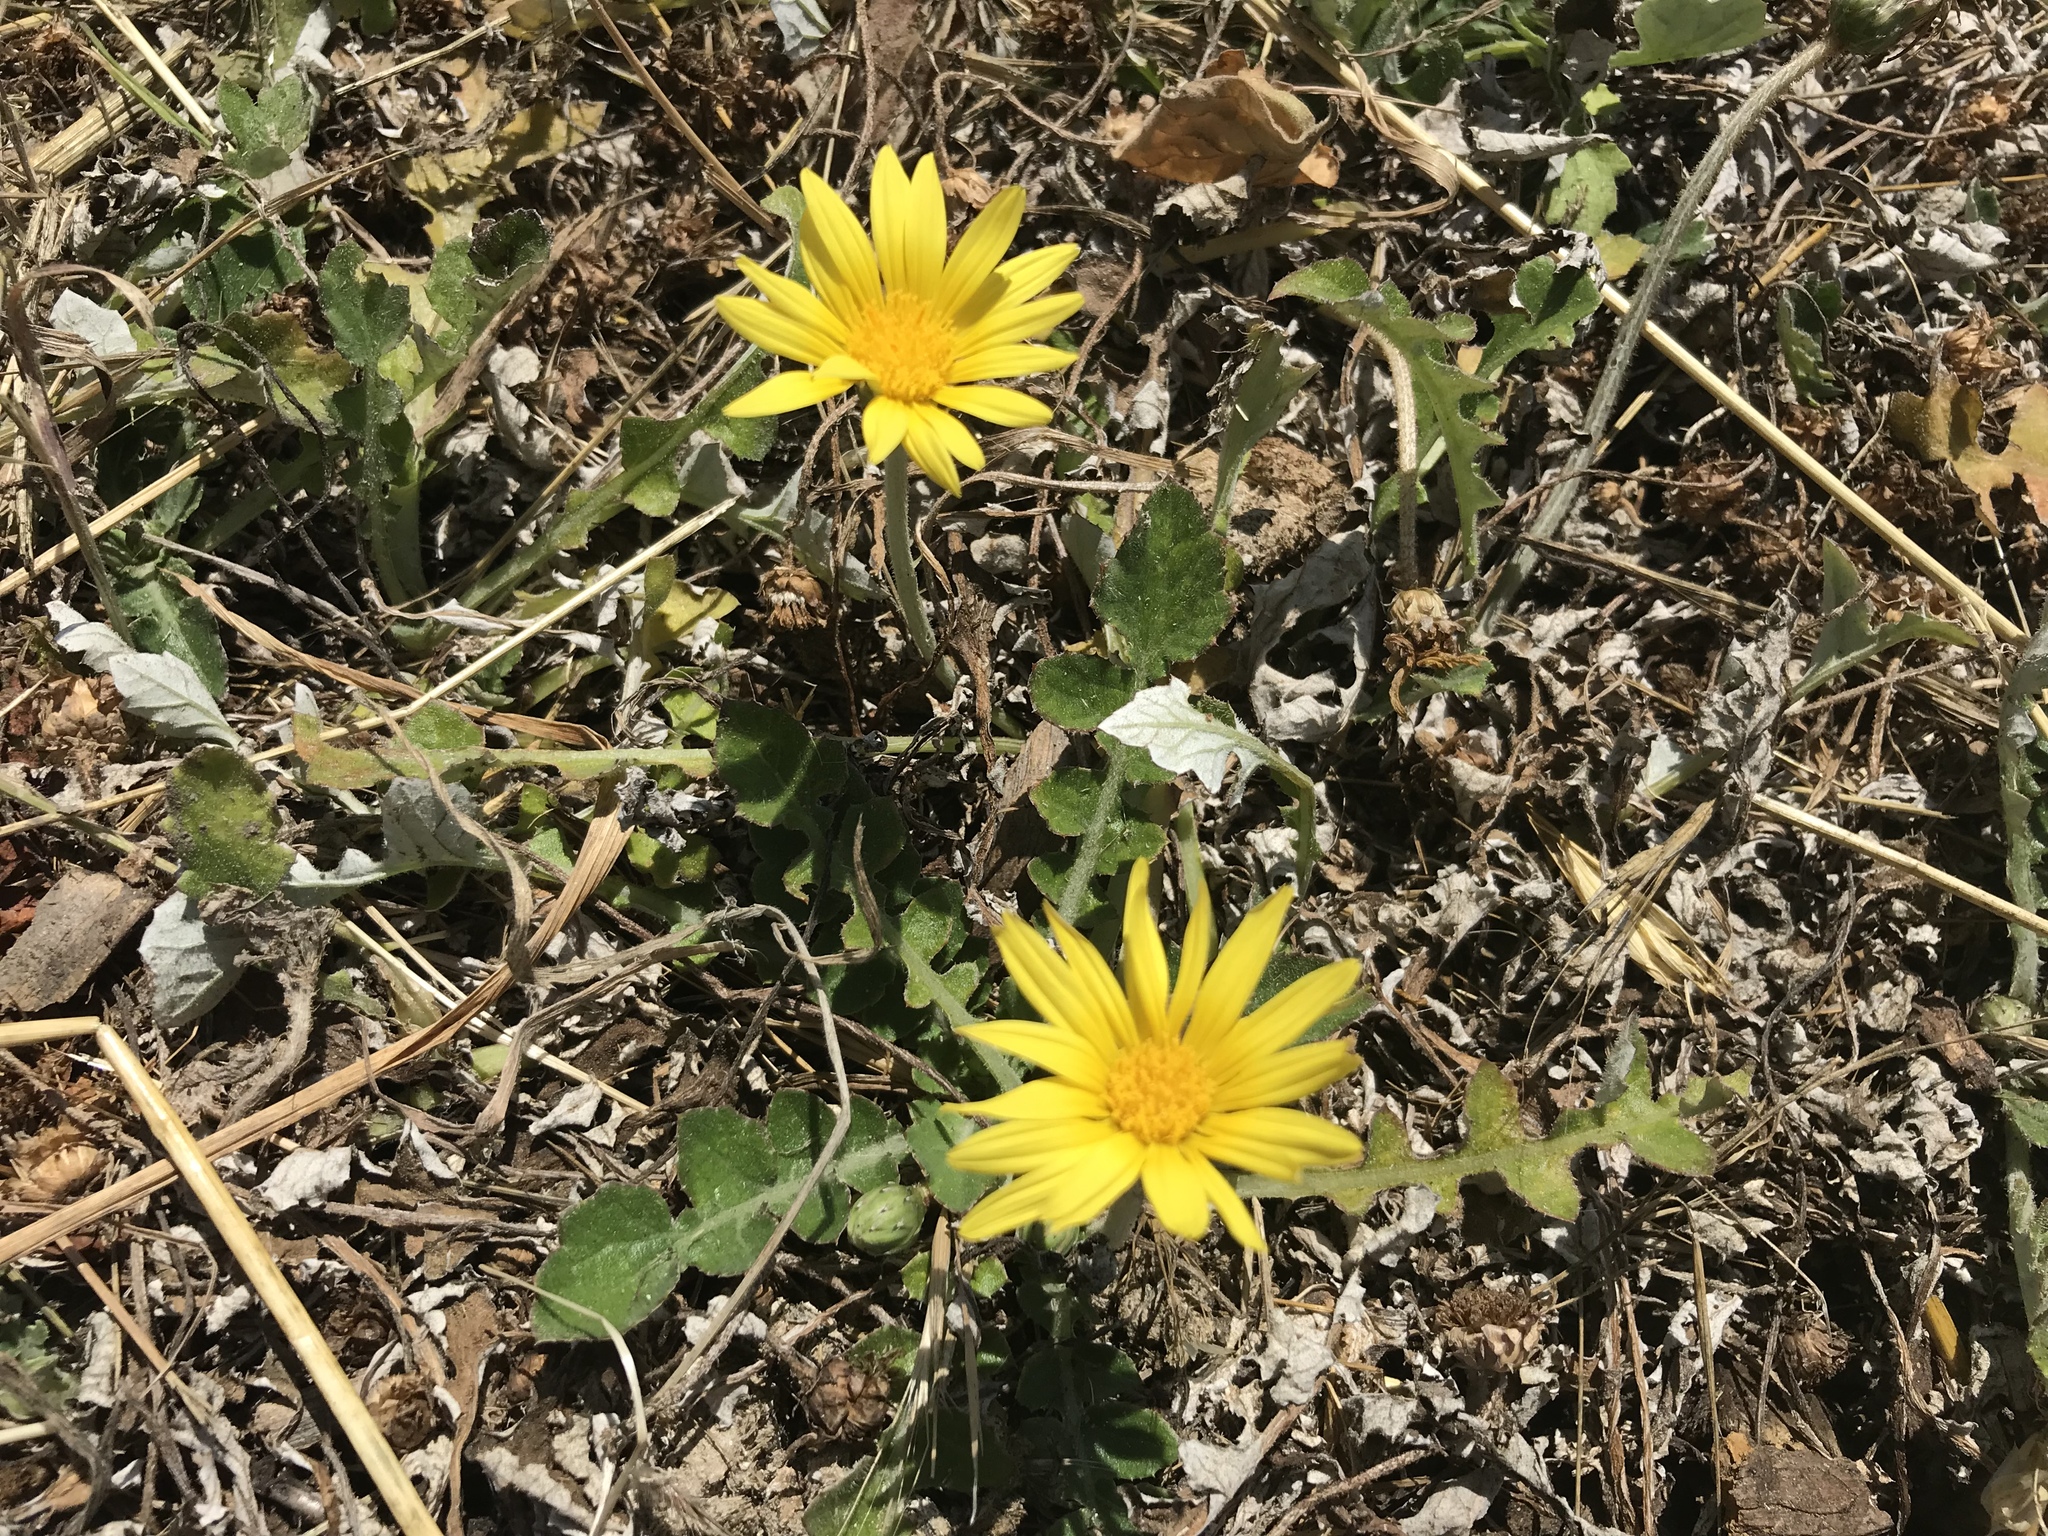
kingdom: Plantae
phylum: Tracheophyta
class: Magnoliopsida
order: Asterales
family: Asteraceae
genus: Arctotheca
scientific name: Arctotheca prostrata
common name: Capeweed
